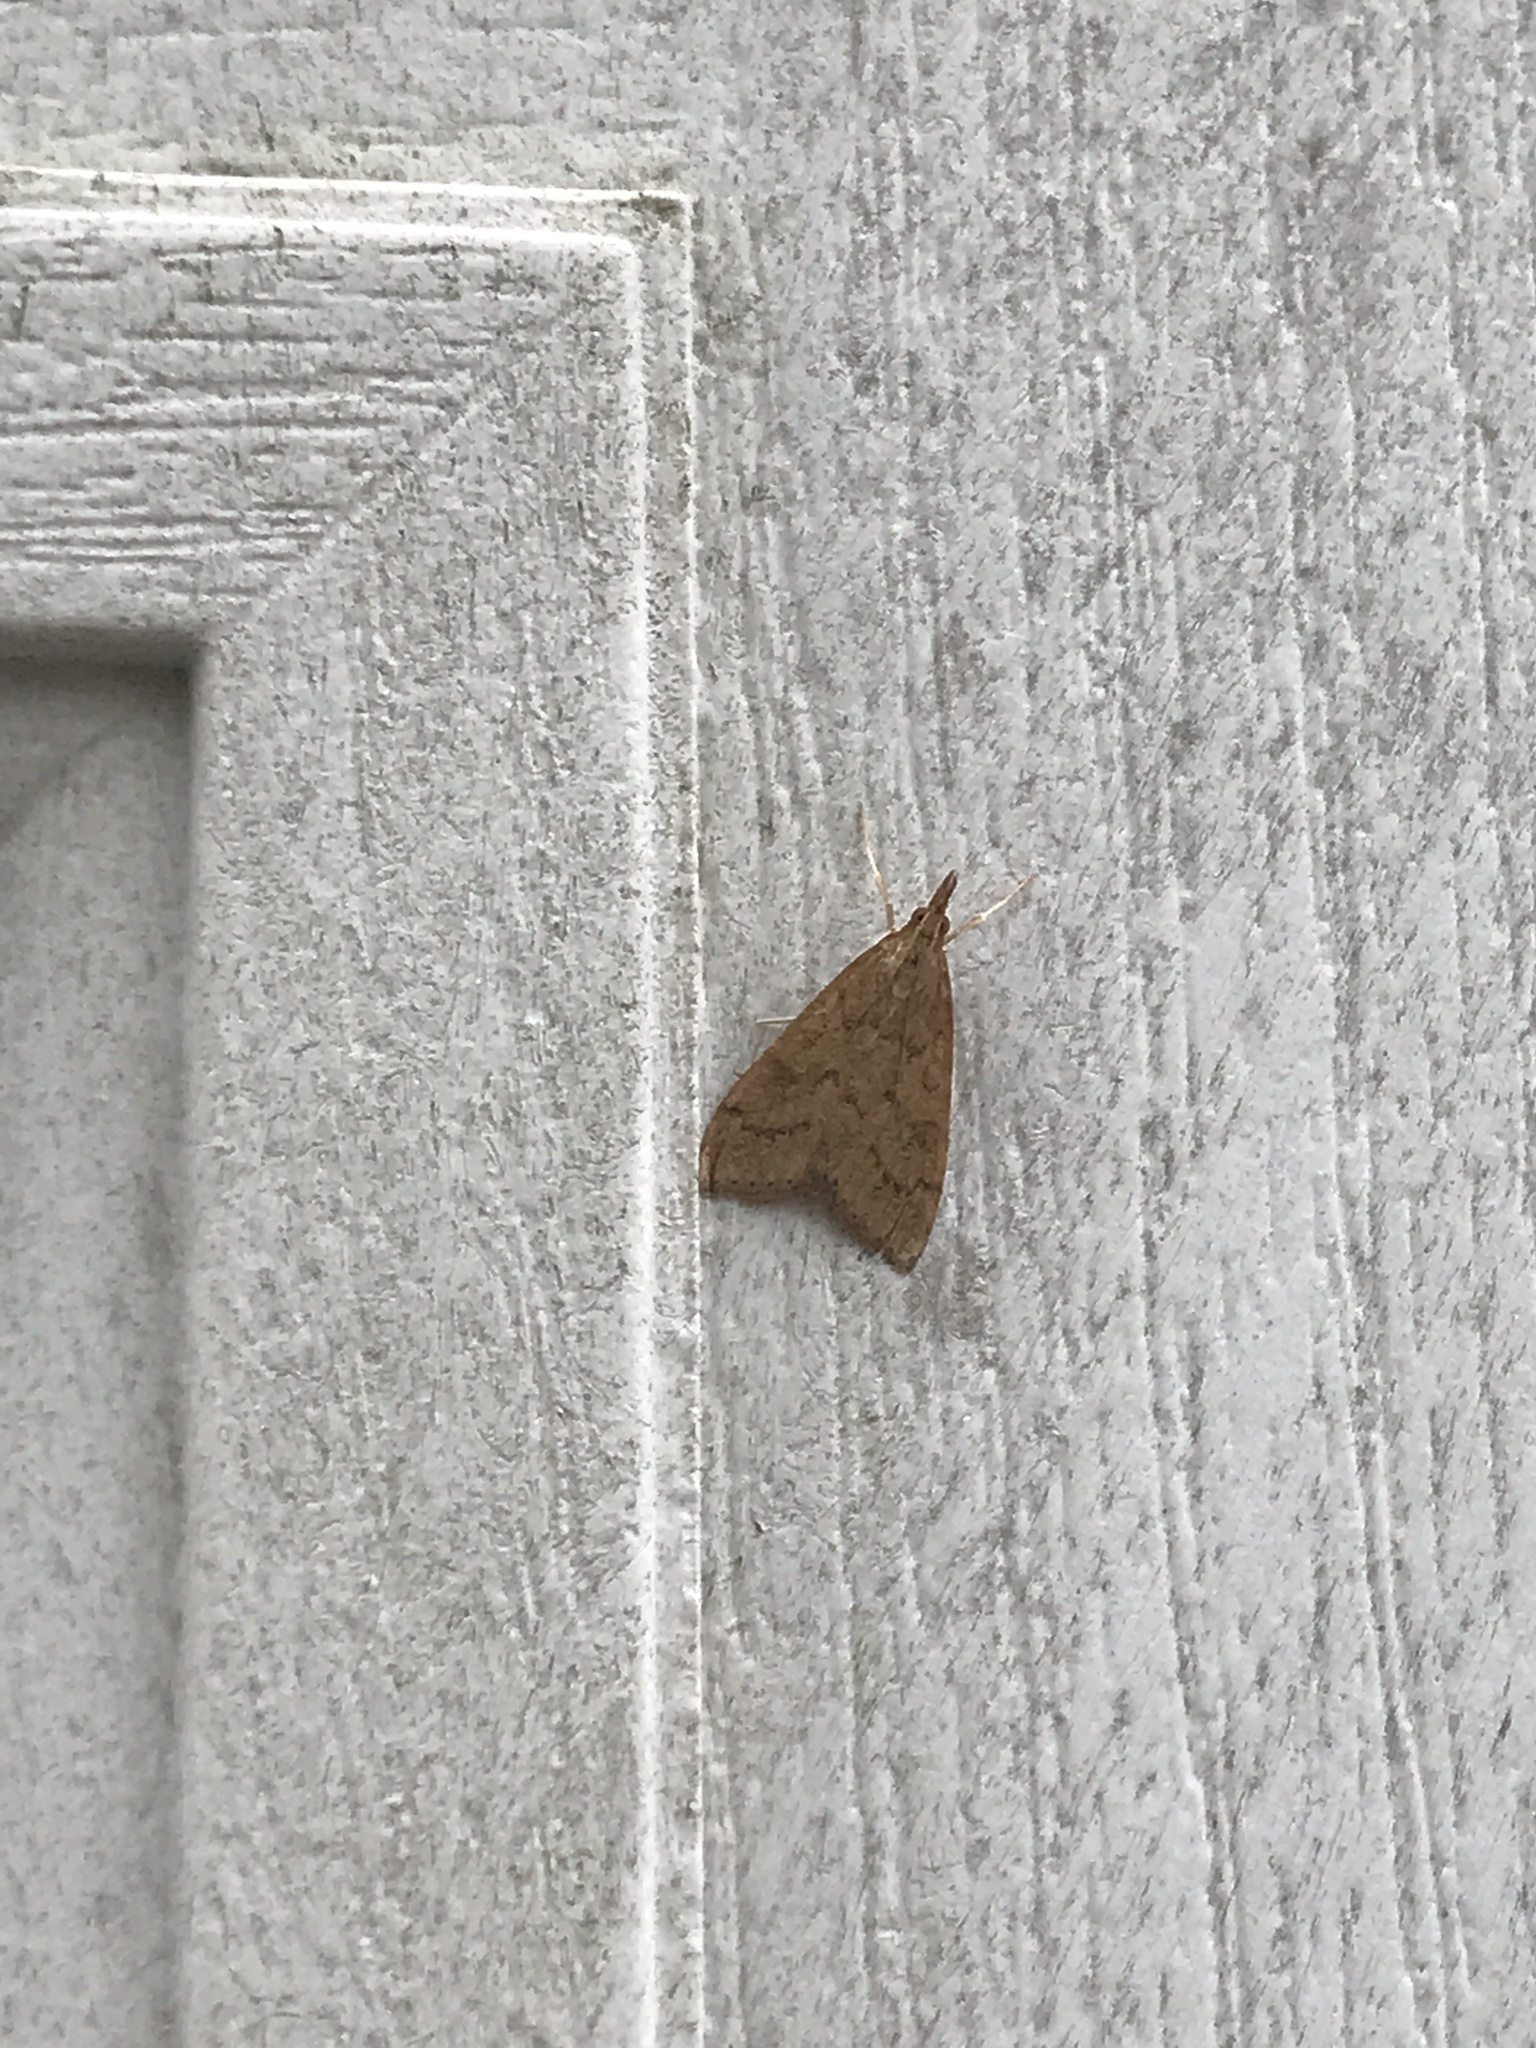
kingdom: Animalia
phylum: Arthropoda
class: Insecta
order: Lepidoptera
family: Crambidae
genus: Udea
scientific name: Udea rubigalis
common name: Celery leaftier moth
